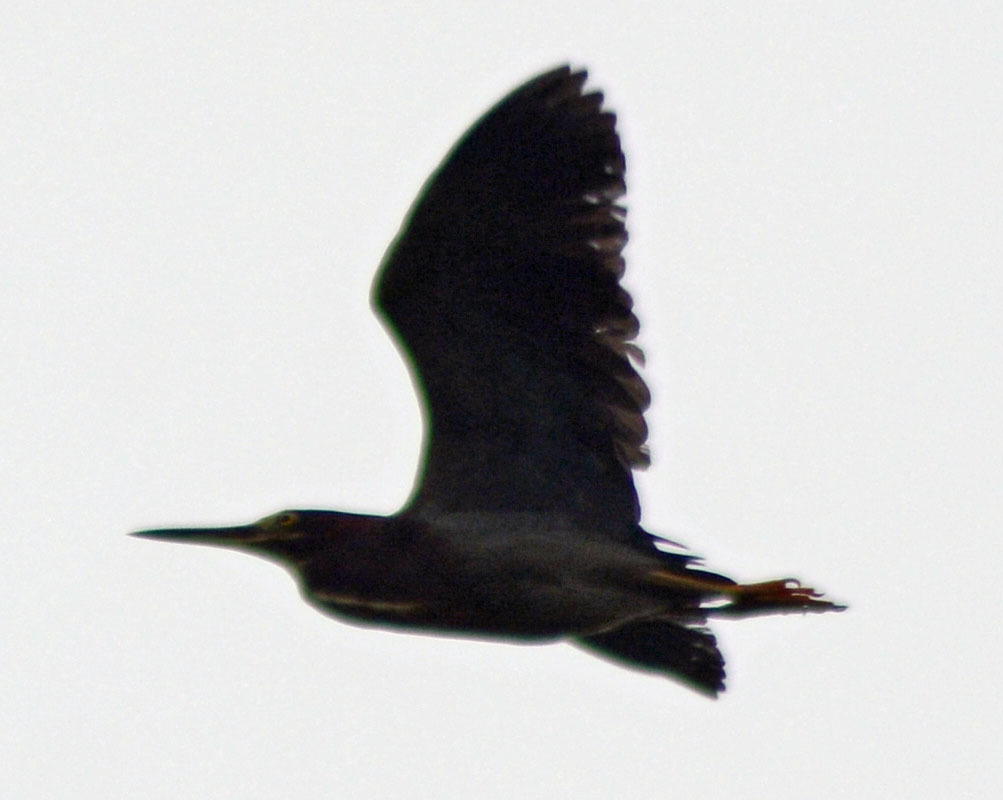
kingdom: Animalia
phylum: Chordata
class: Aves
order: Pelecaniformes
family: Ardeidae
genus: Butorides
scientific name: Butorides virescens
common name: Green heron
